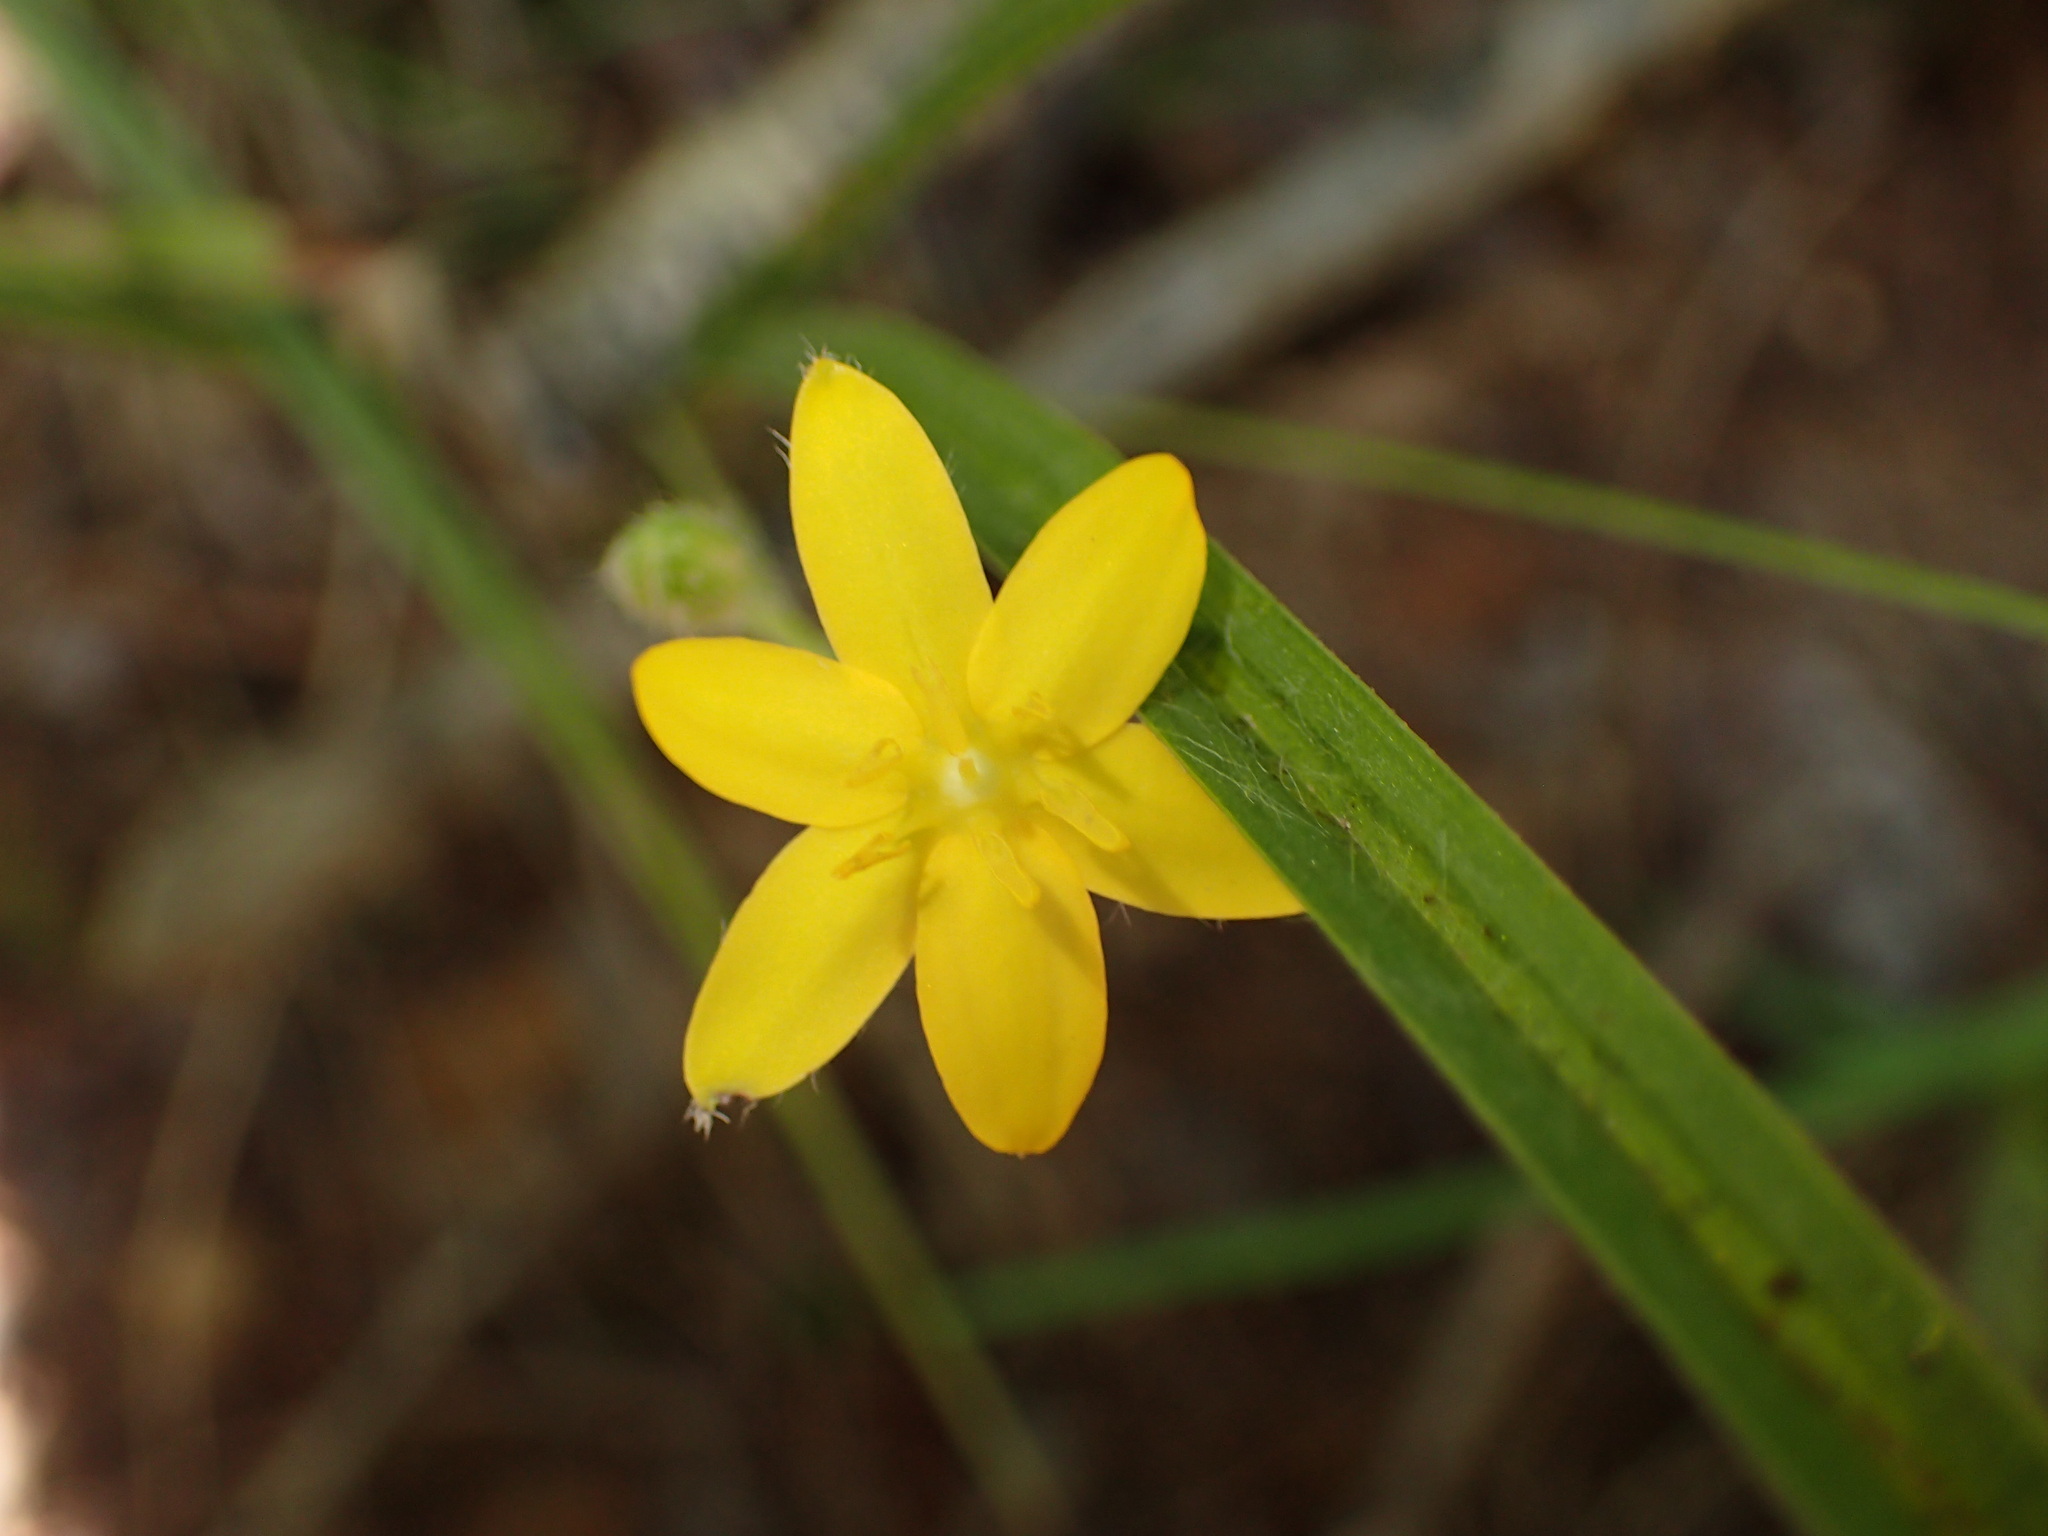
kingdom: Plantae
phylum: Tracheophyta
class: Liliopsida
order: Asparagales
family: Hypoxidaceae
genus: Hypoxis
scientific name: Hypoxis hirsuta
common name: Common goldstar
